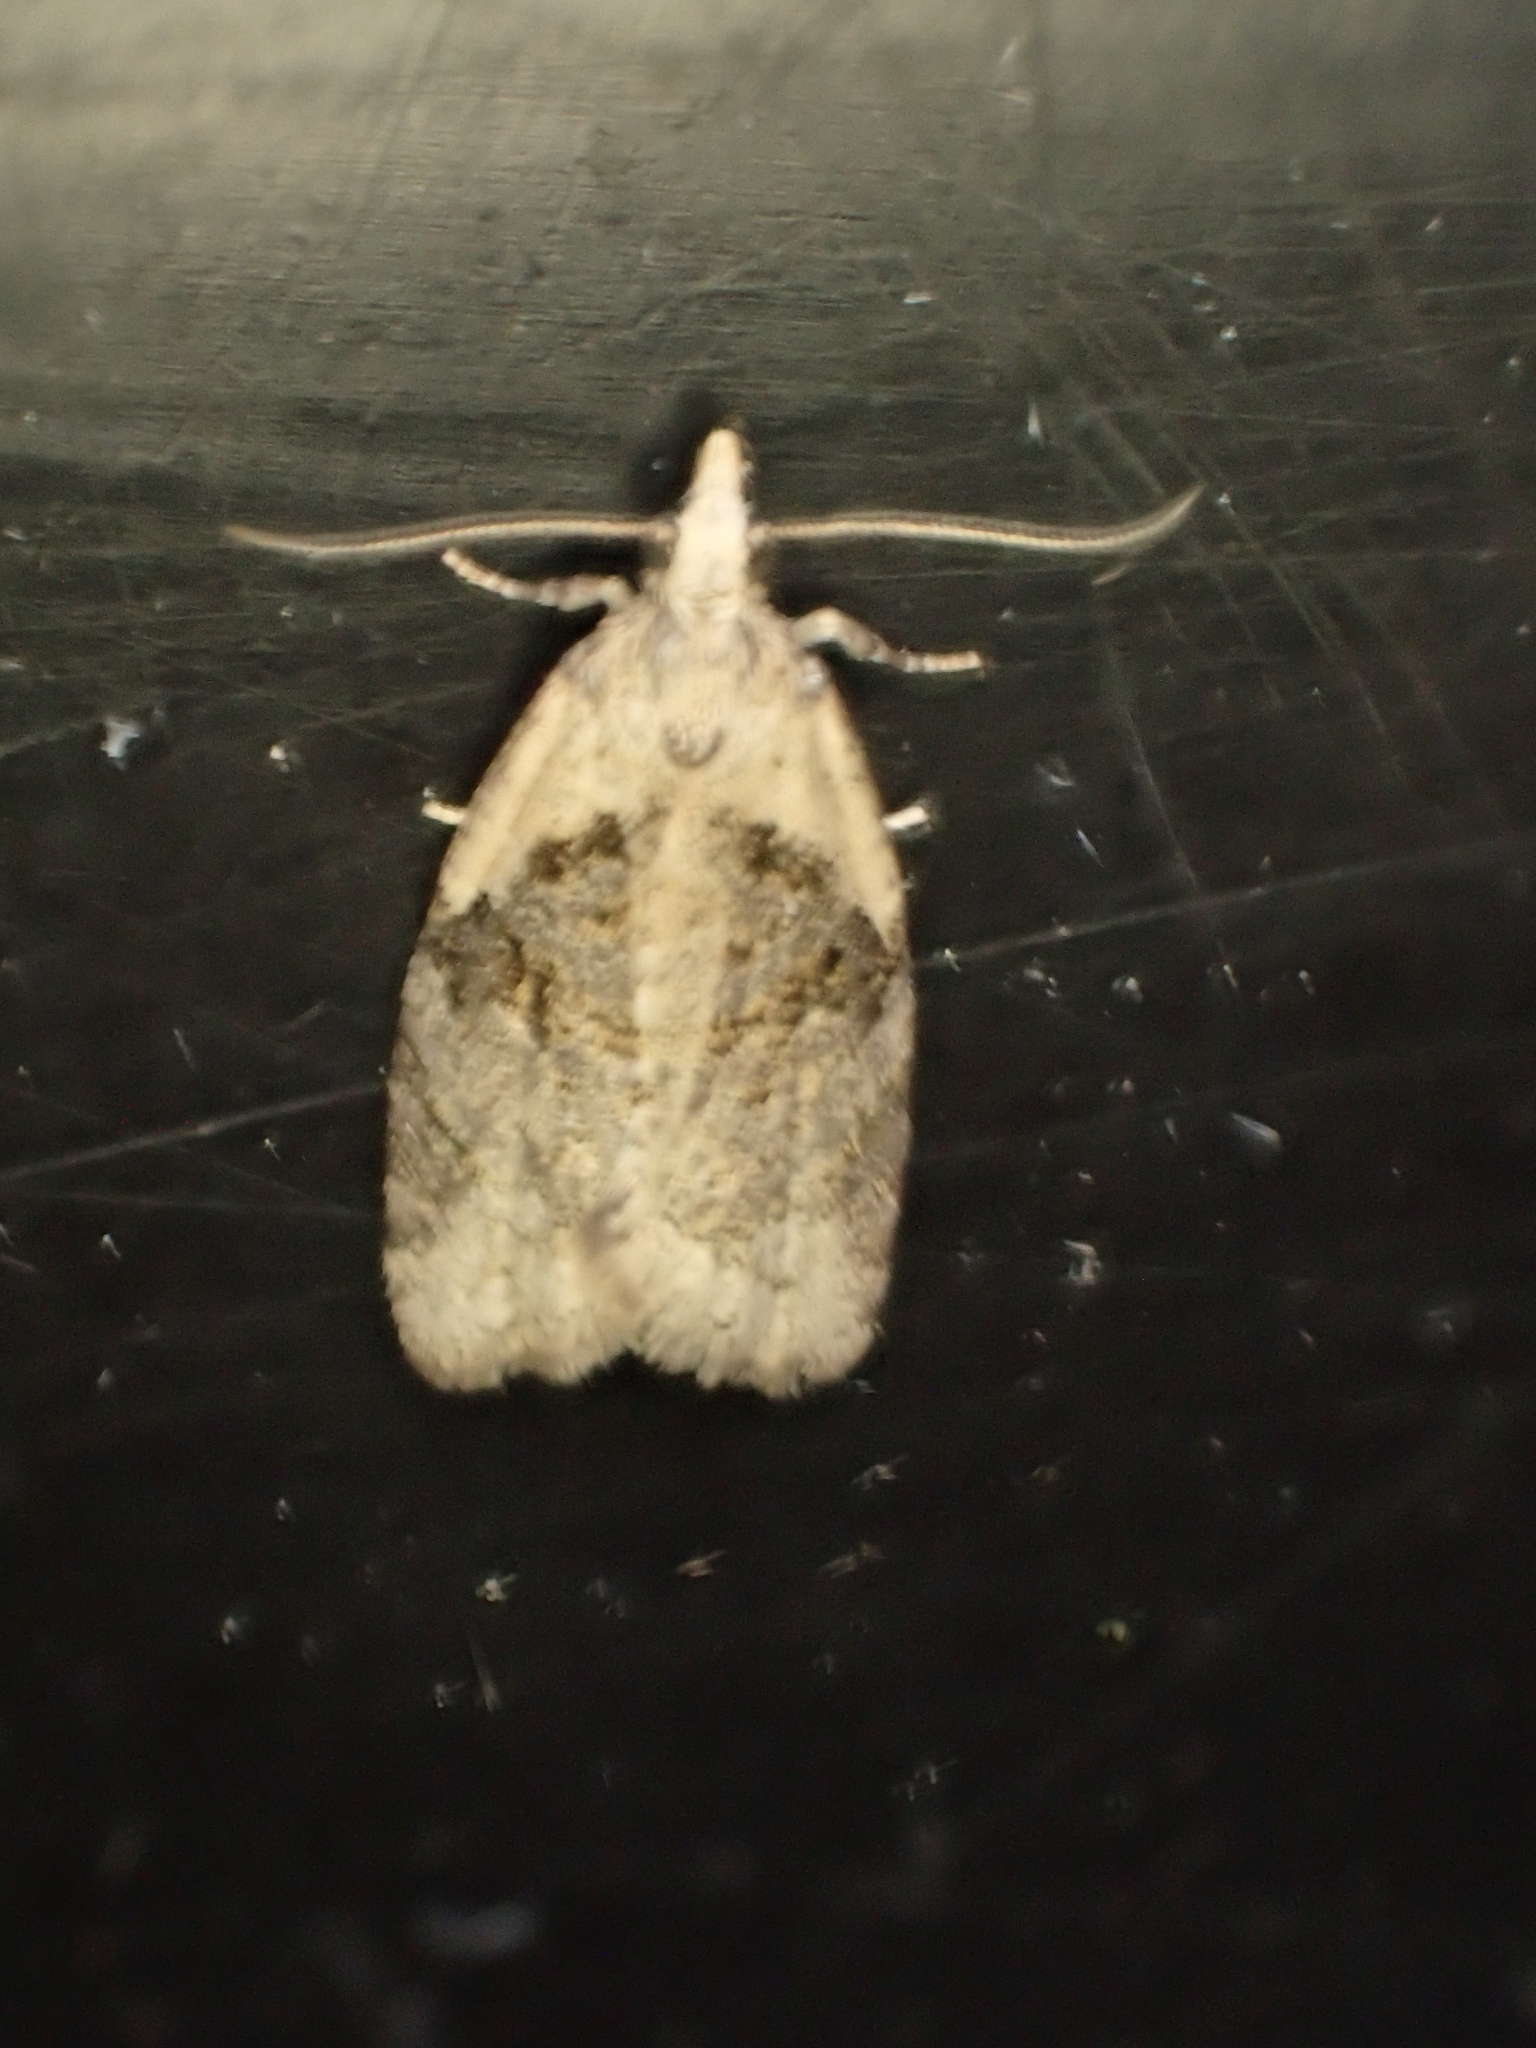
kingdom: Animalia
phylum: Arthropoda
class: Insecta
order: Lepidoptera
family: Tortricidae
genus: Capua
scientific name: Capua vulgana
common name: Common twist
